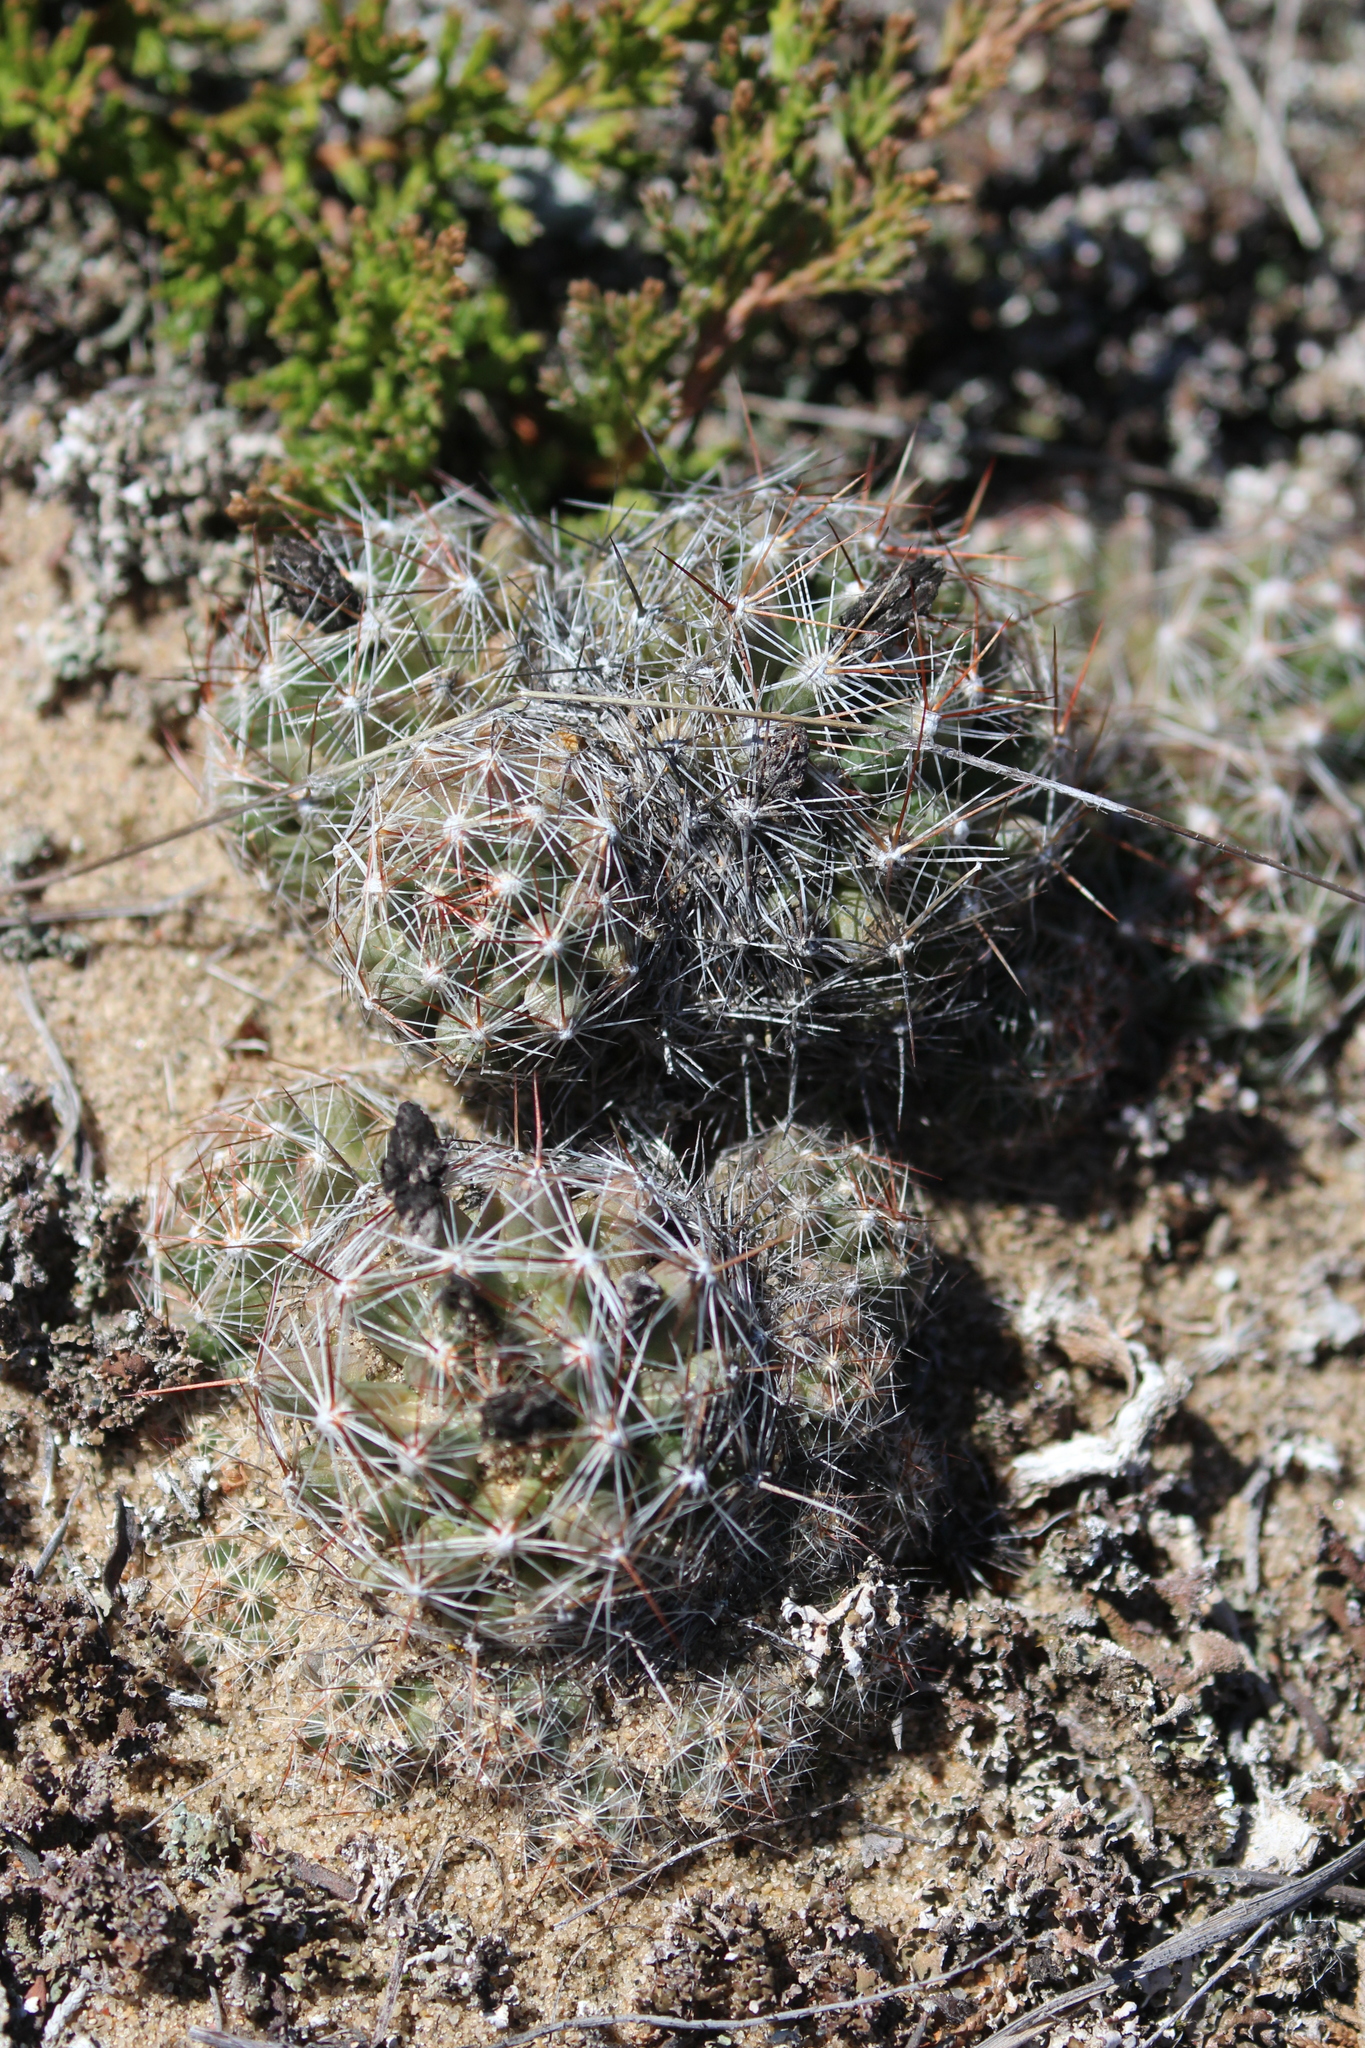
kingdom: Plantae
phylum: Tracheophyta
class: Magnoliopsida
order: Caryophyllales
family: Cactaceae
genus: Pelecyphora
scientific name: Pelecyphora vivipara
